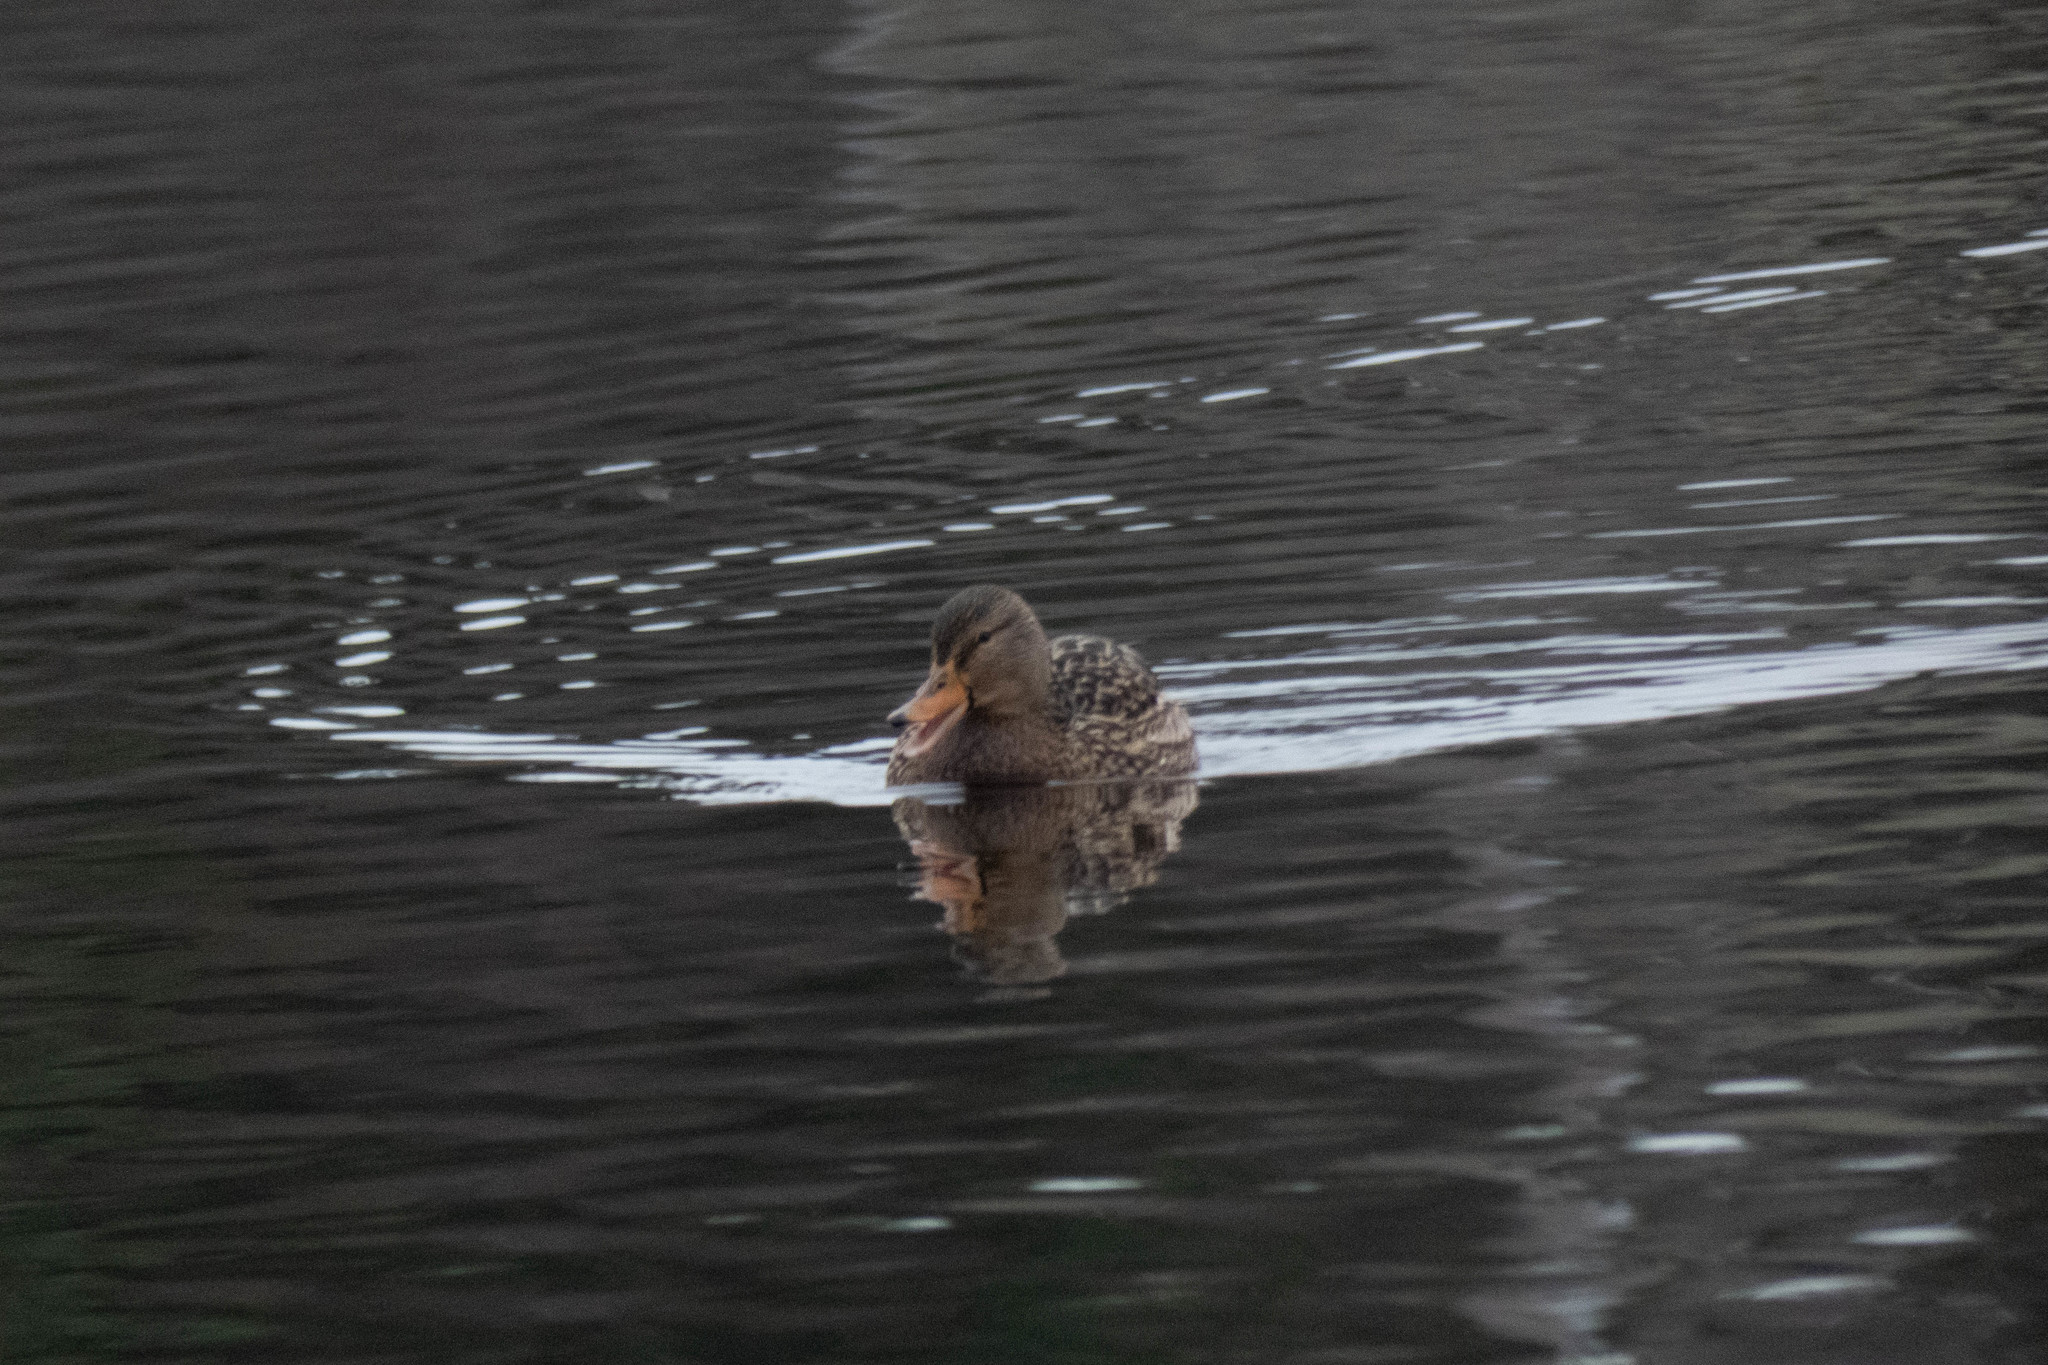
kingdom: Animalia
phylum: Chordata
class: Aves
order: Anseriformes
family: Anatidae
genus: Anas
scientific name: Anas platyrhynchos
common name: Mallard
